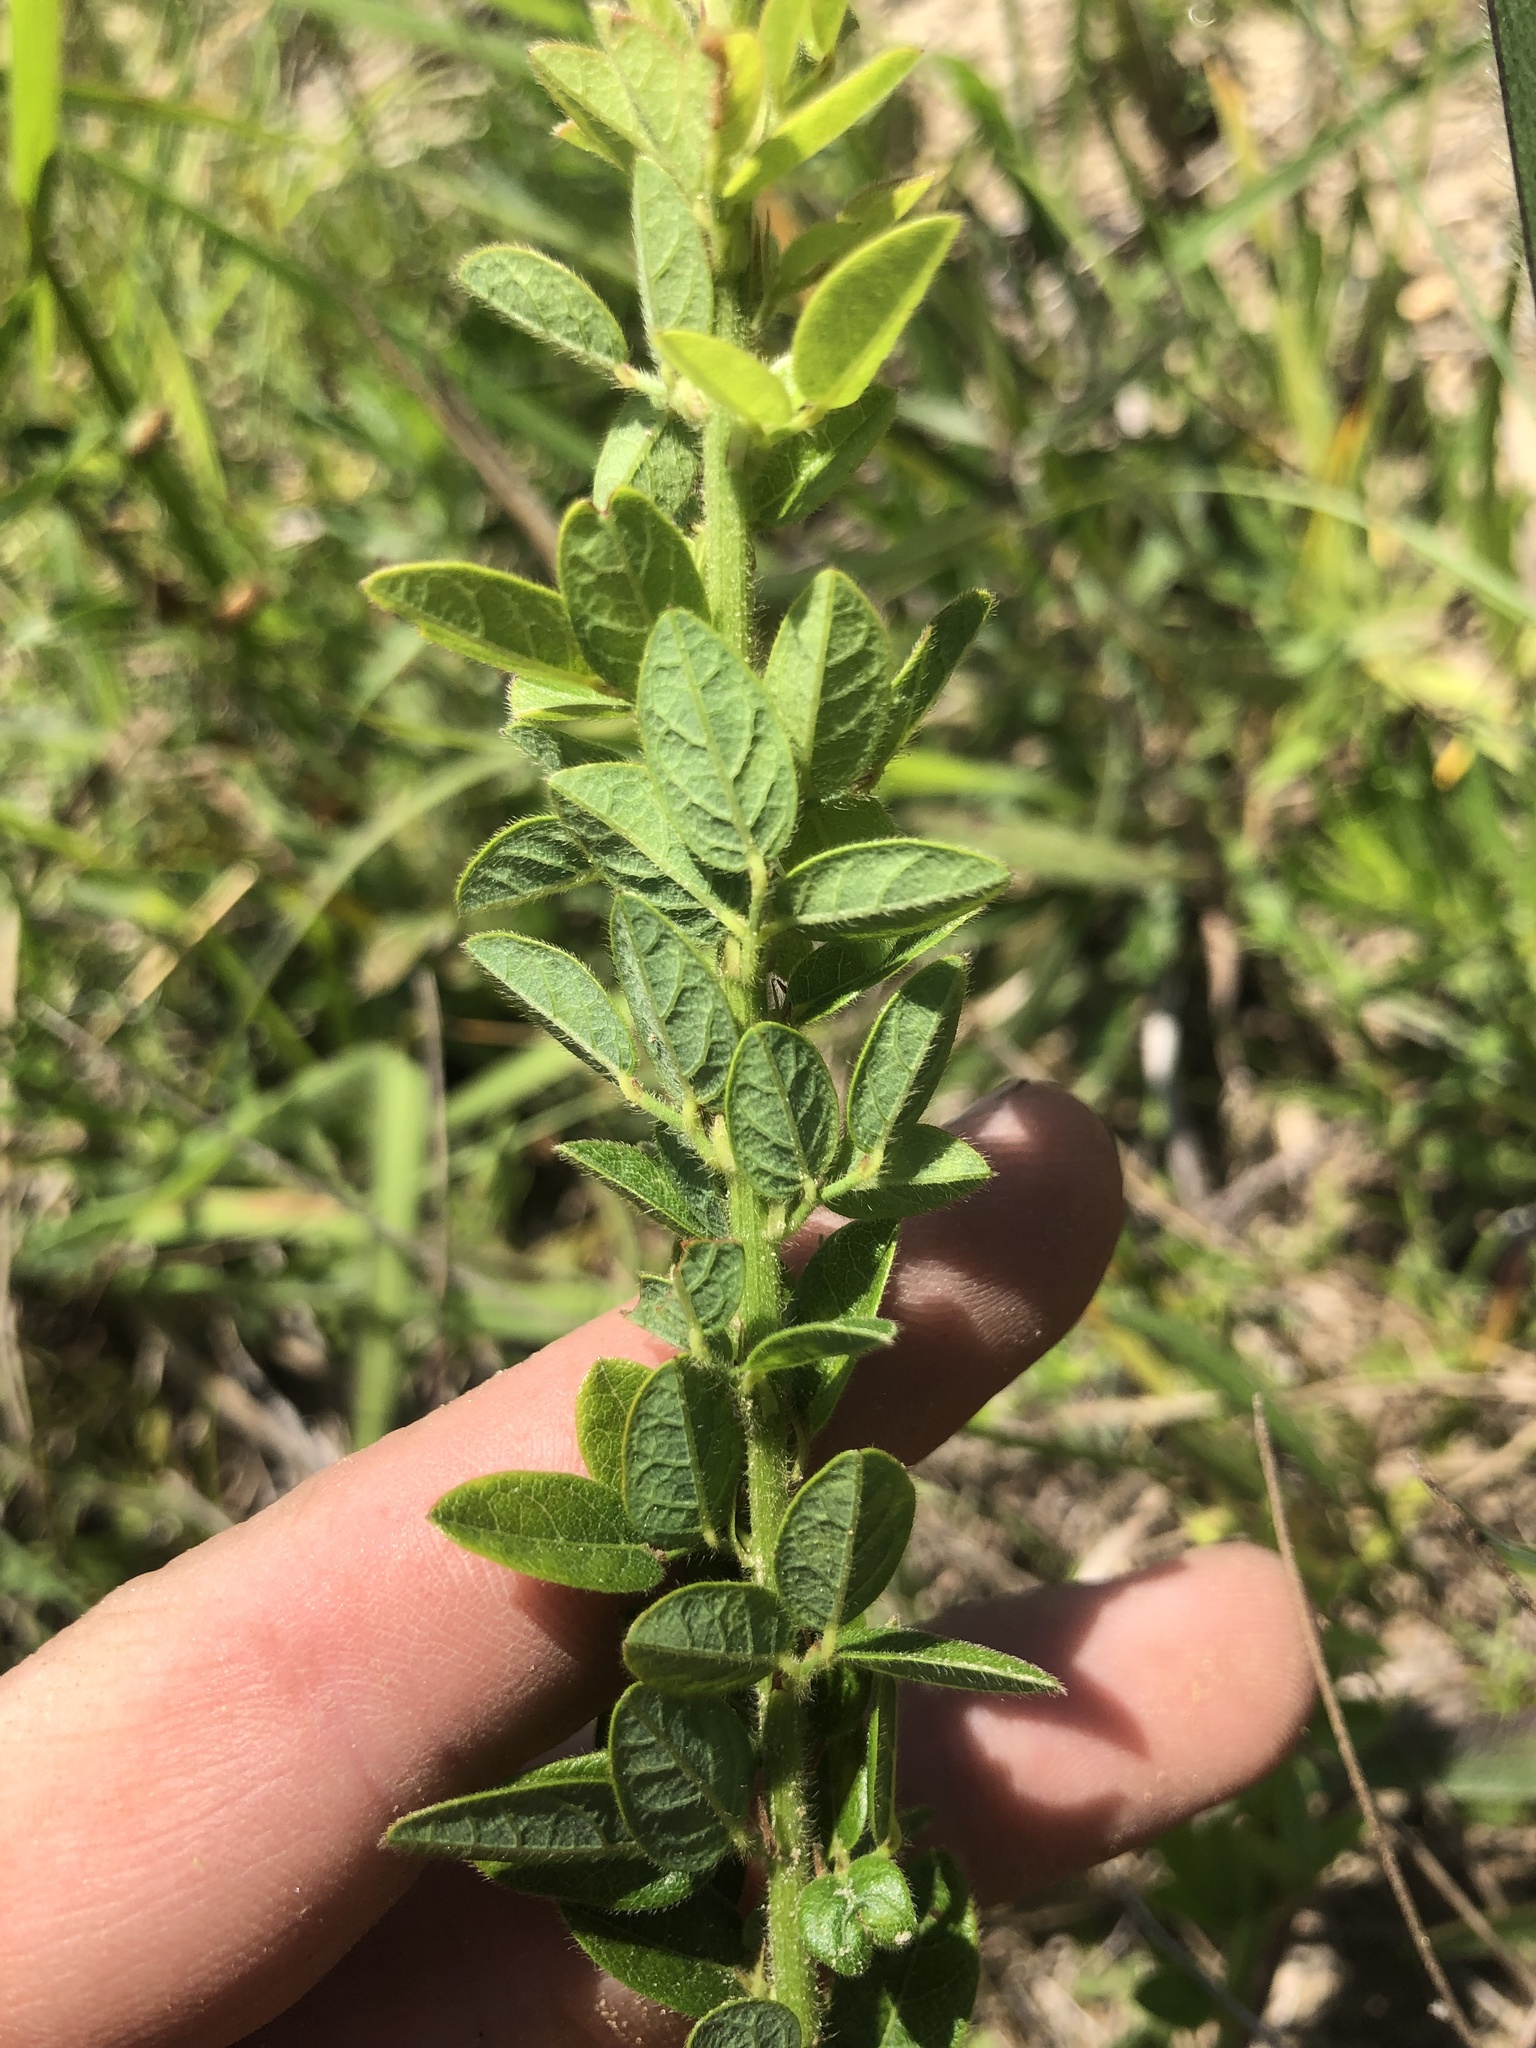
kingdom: Plantae
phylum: Tracheophyta
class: Magnoliopsida
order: Fabales
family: Fabaceae
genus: Desmodium
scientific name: Desmodium ciliare
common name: Hairy small-leaf ticktrefoil
